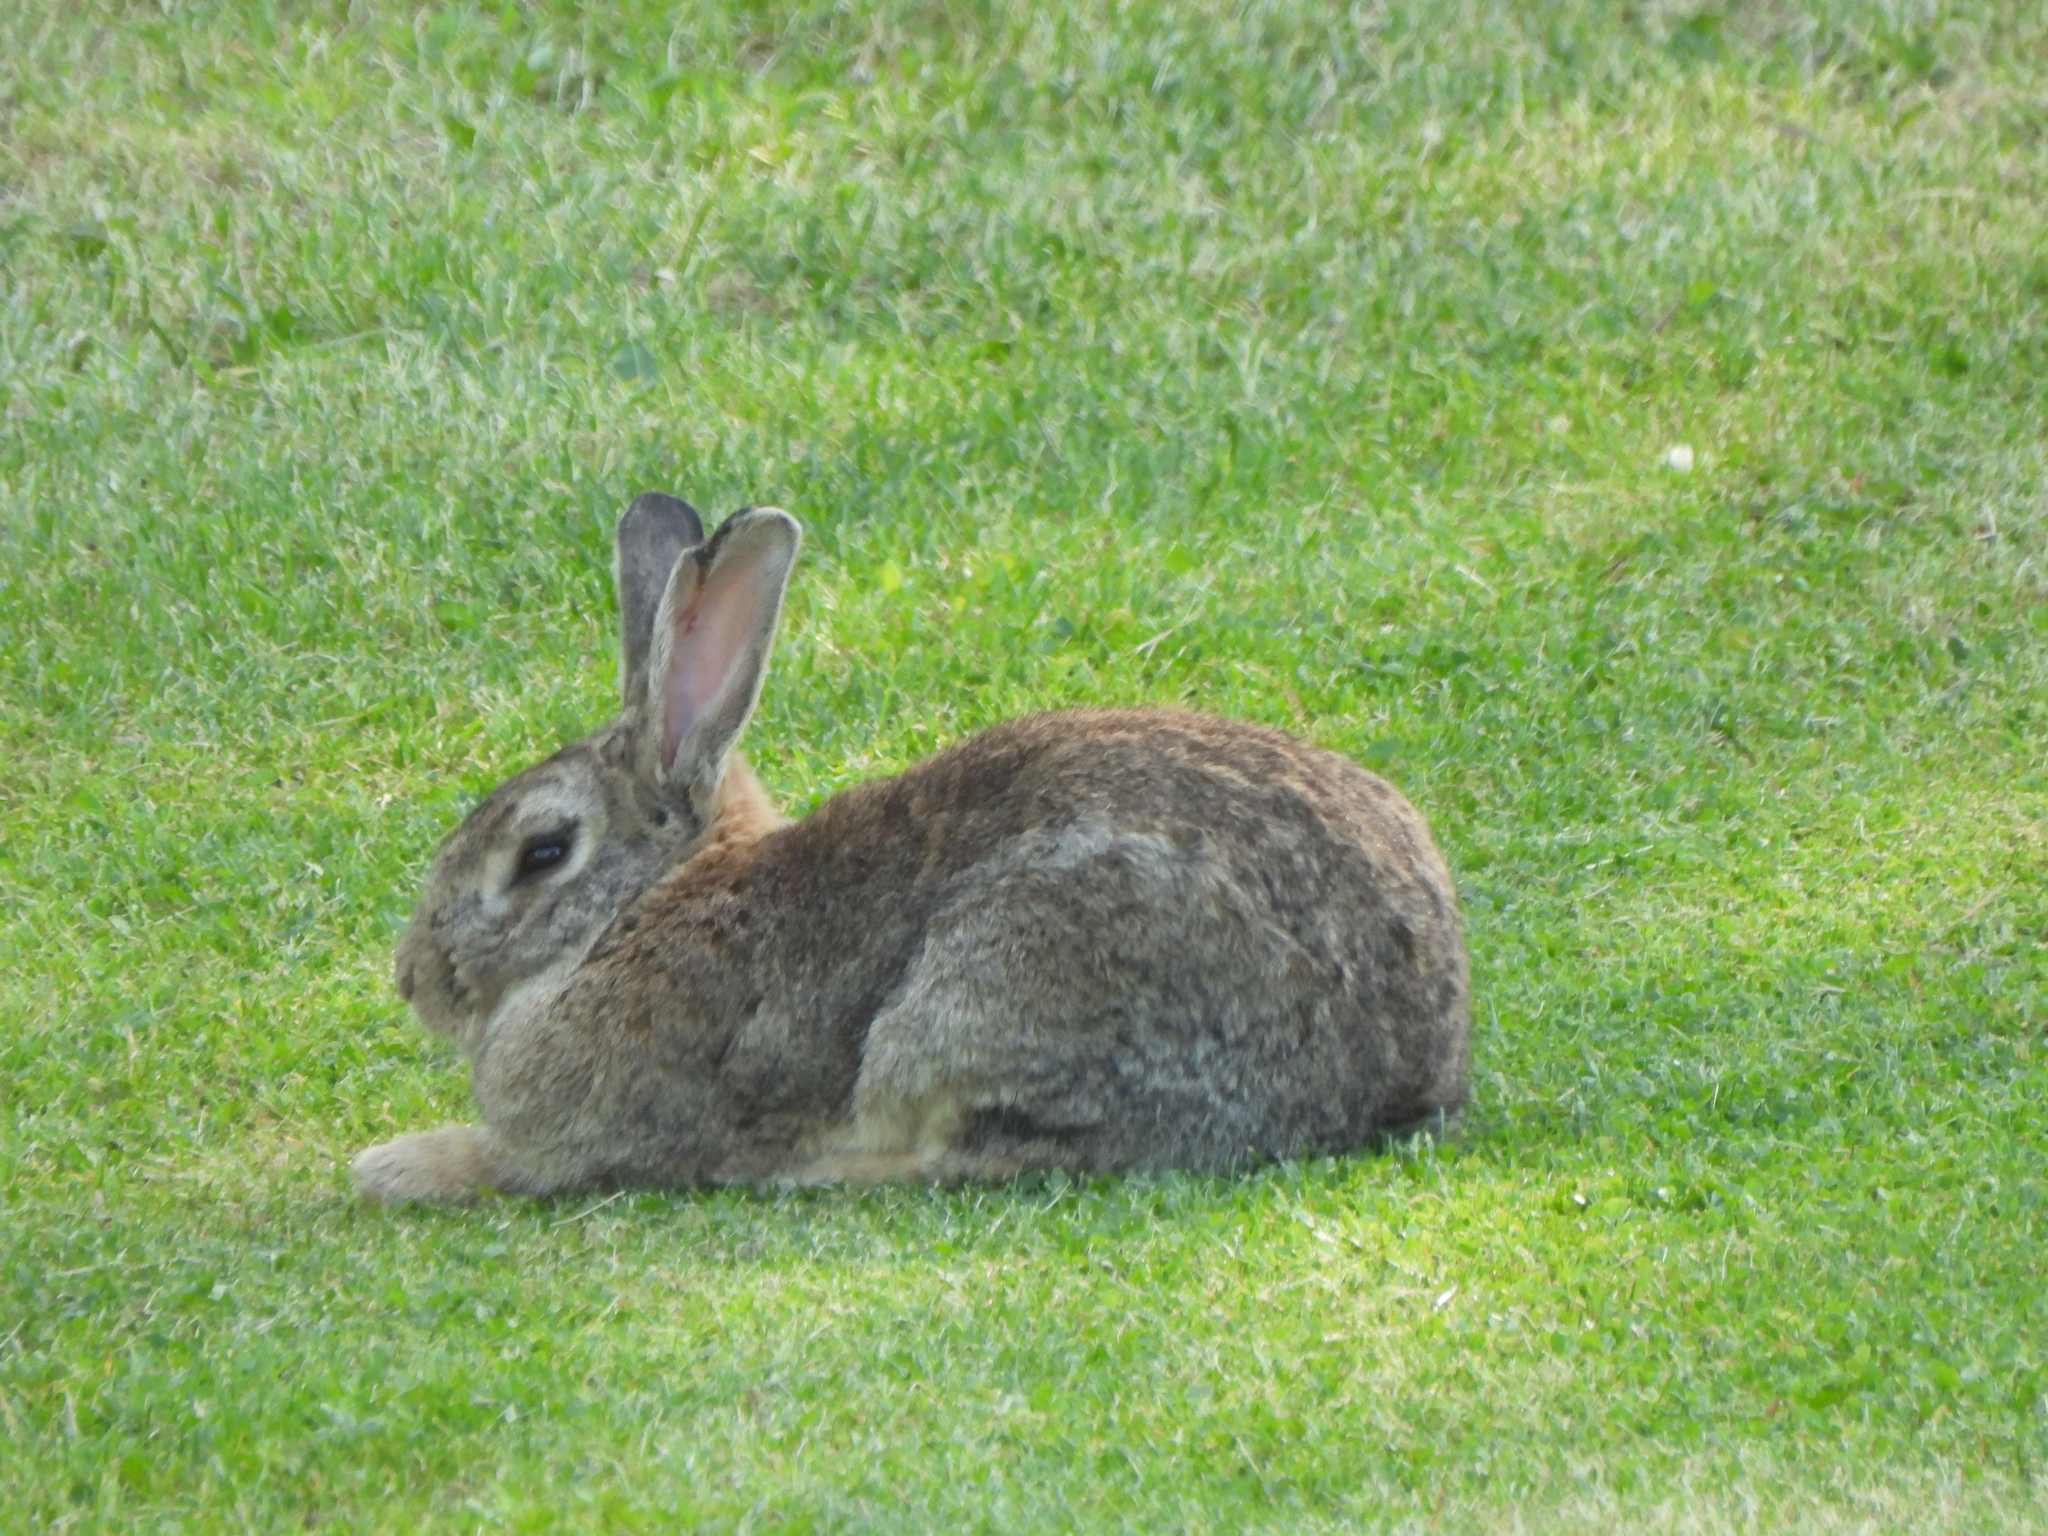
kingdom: Animalia
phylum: Chordata
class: Mammalia
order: Lagomorpha
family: Leporidae
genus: Sylvilagus
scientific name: Sylvilagus floridanus
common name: Eastern cottontail
